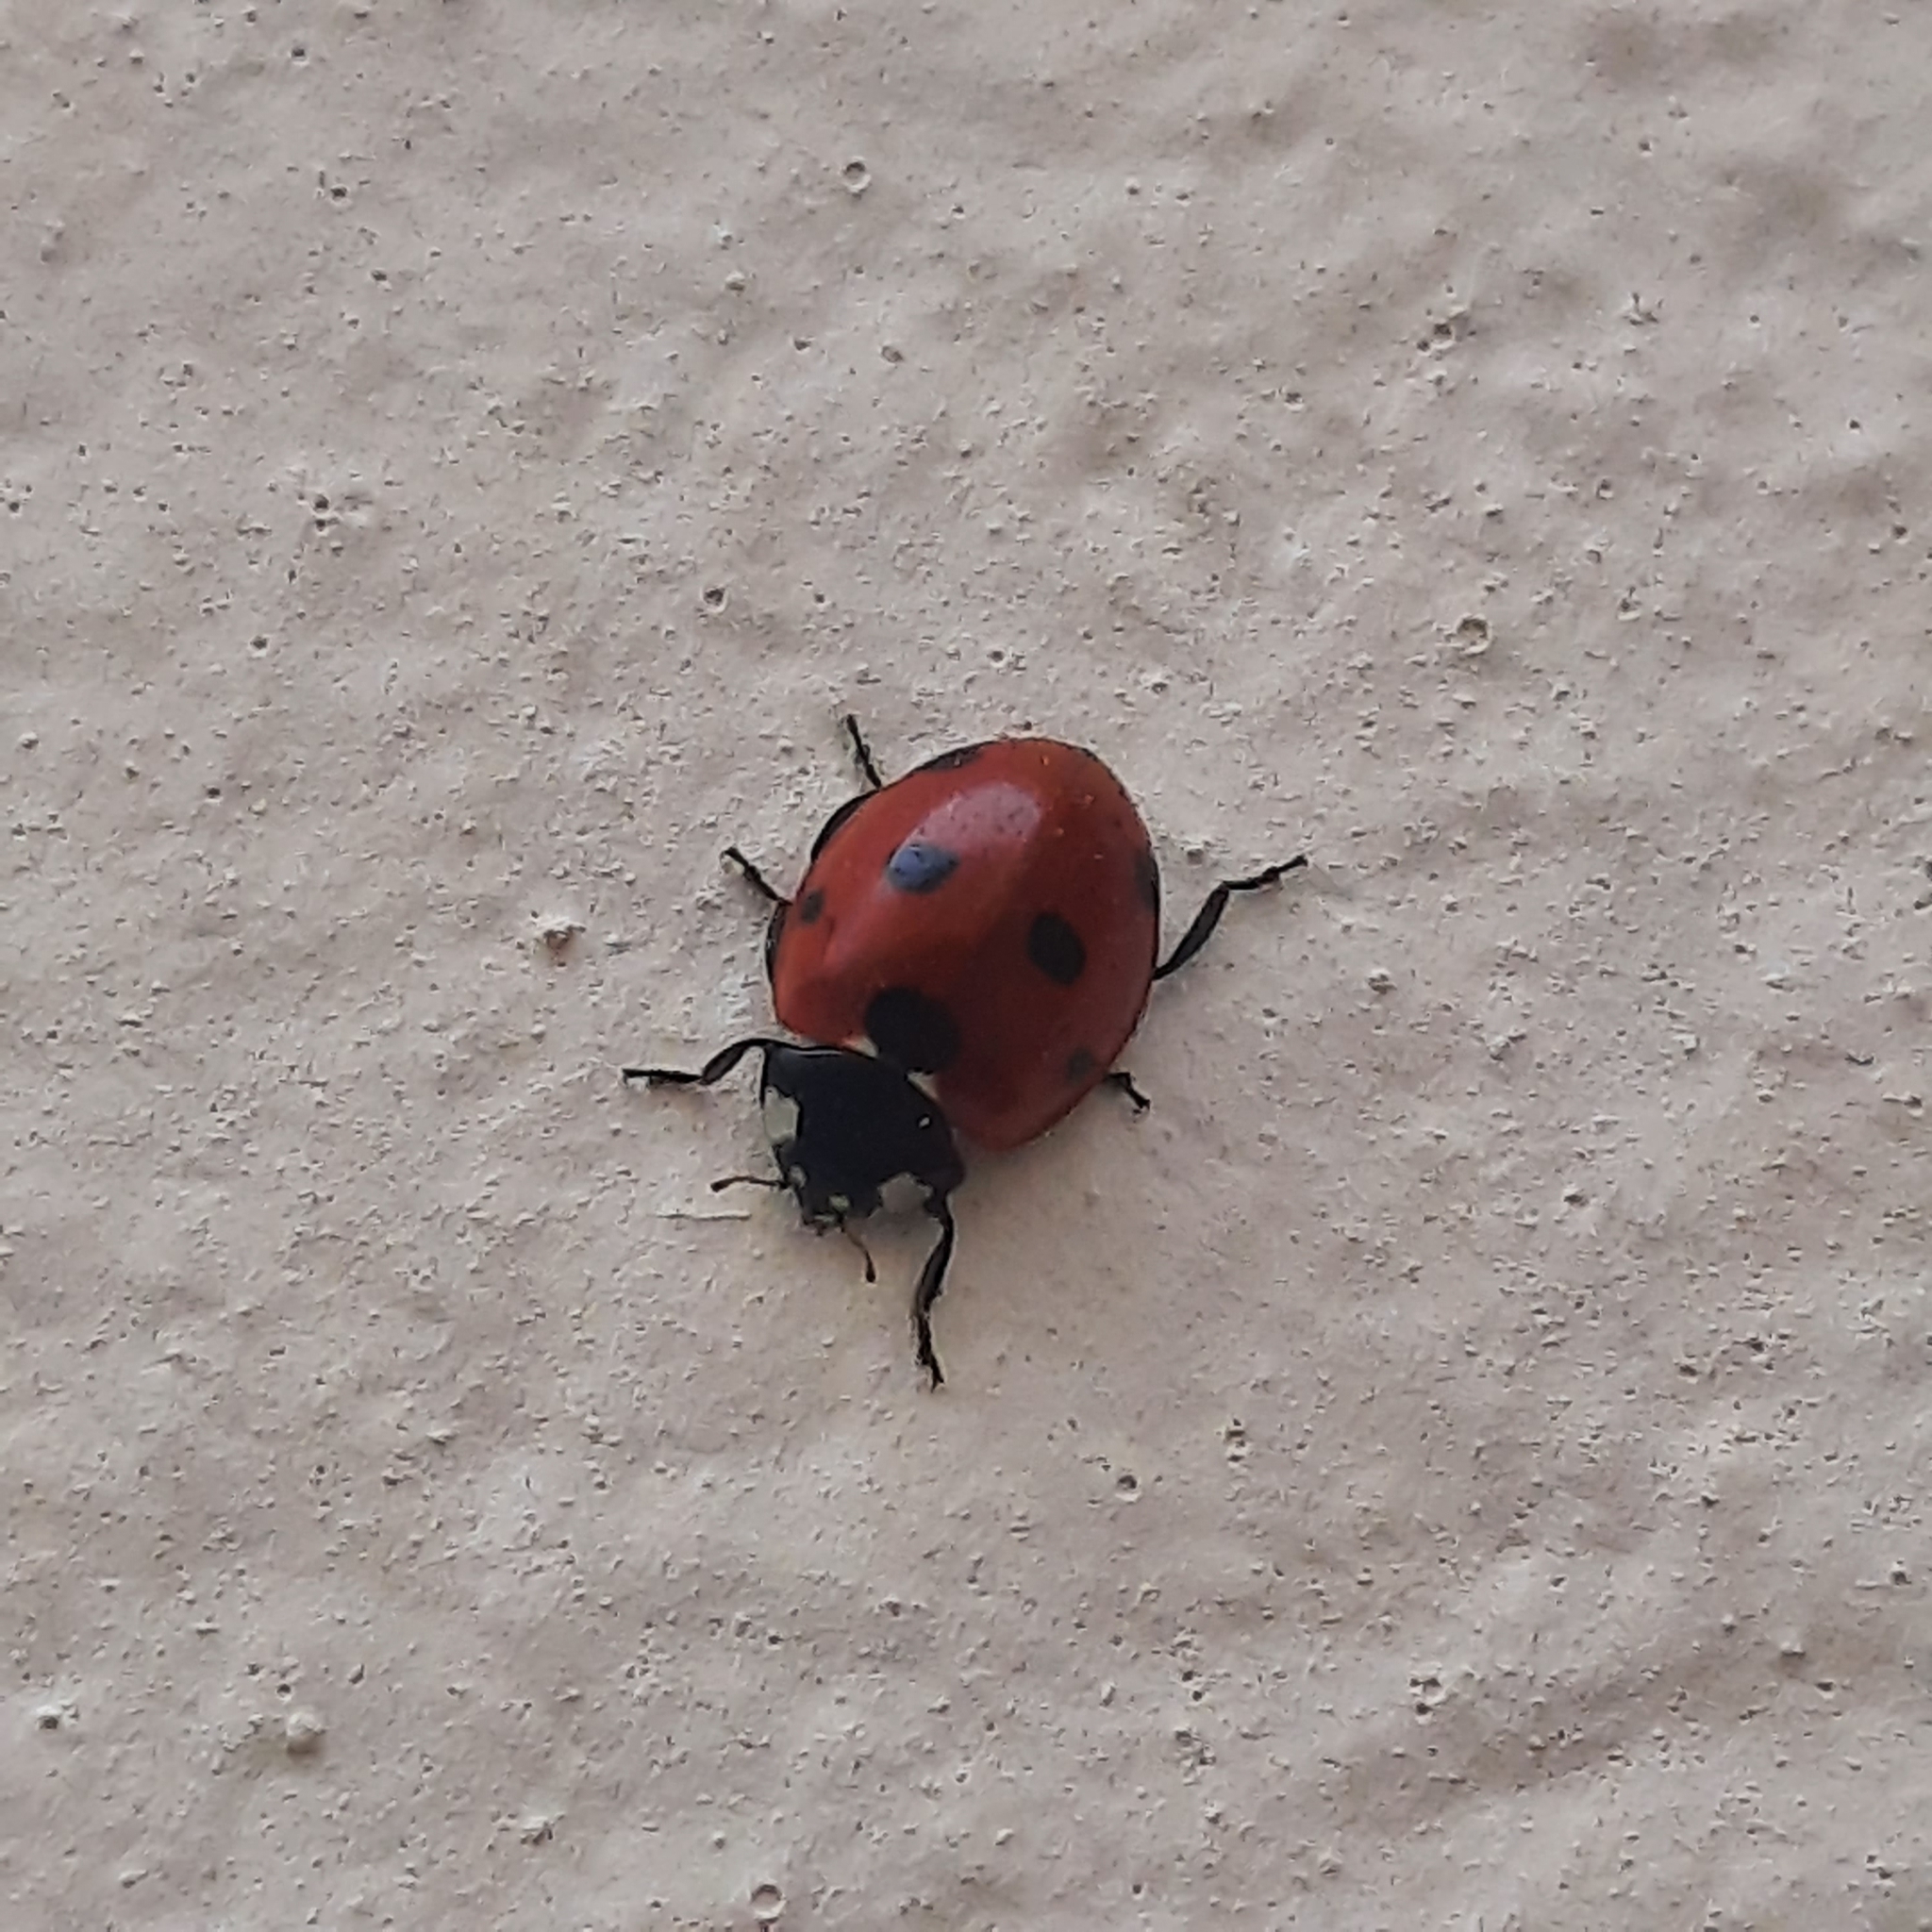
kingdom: Animalia
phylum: Arthropoda
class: Insecta
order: Coleoptera
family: Coccinellidae
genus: Coccinella
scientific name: Coccinella septempunctata
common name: Sevenspotted lady beetle
